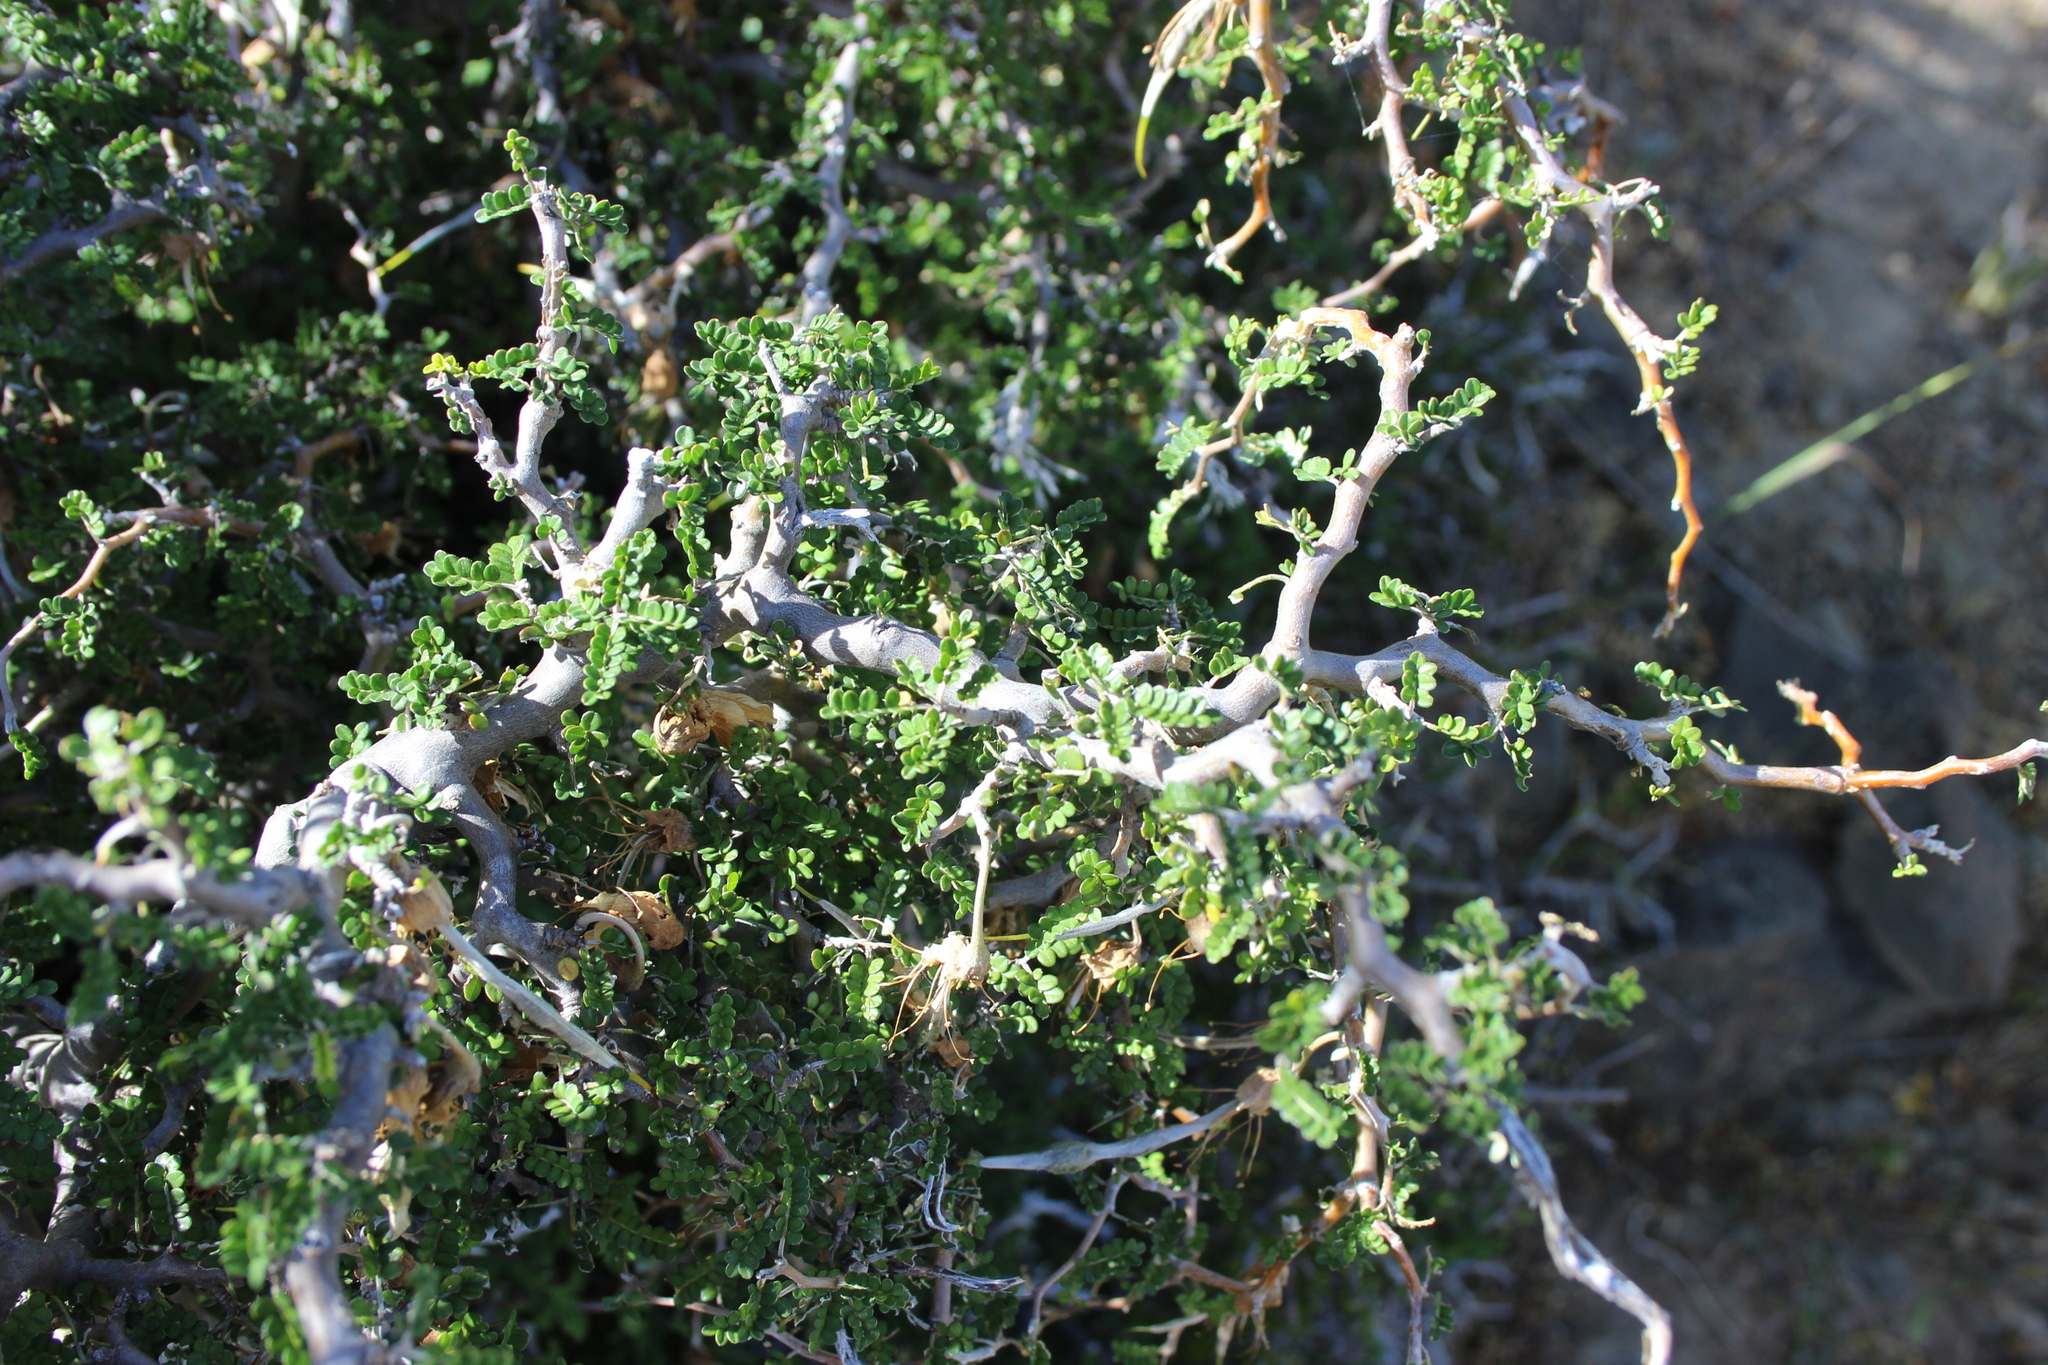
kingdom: Plantae
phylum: Tracheophyta
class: Magnoliopsida
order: Fabales
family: Fabaceae
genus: Sophora
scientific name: Sophora prostrata
